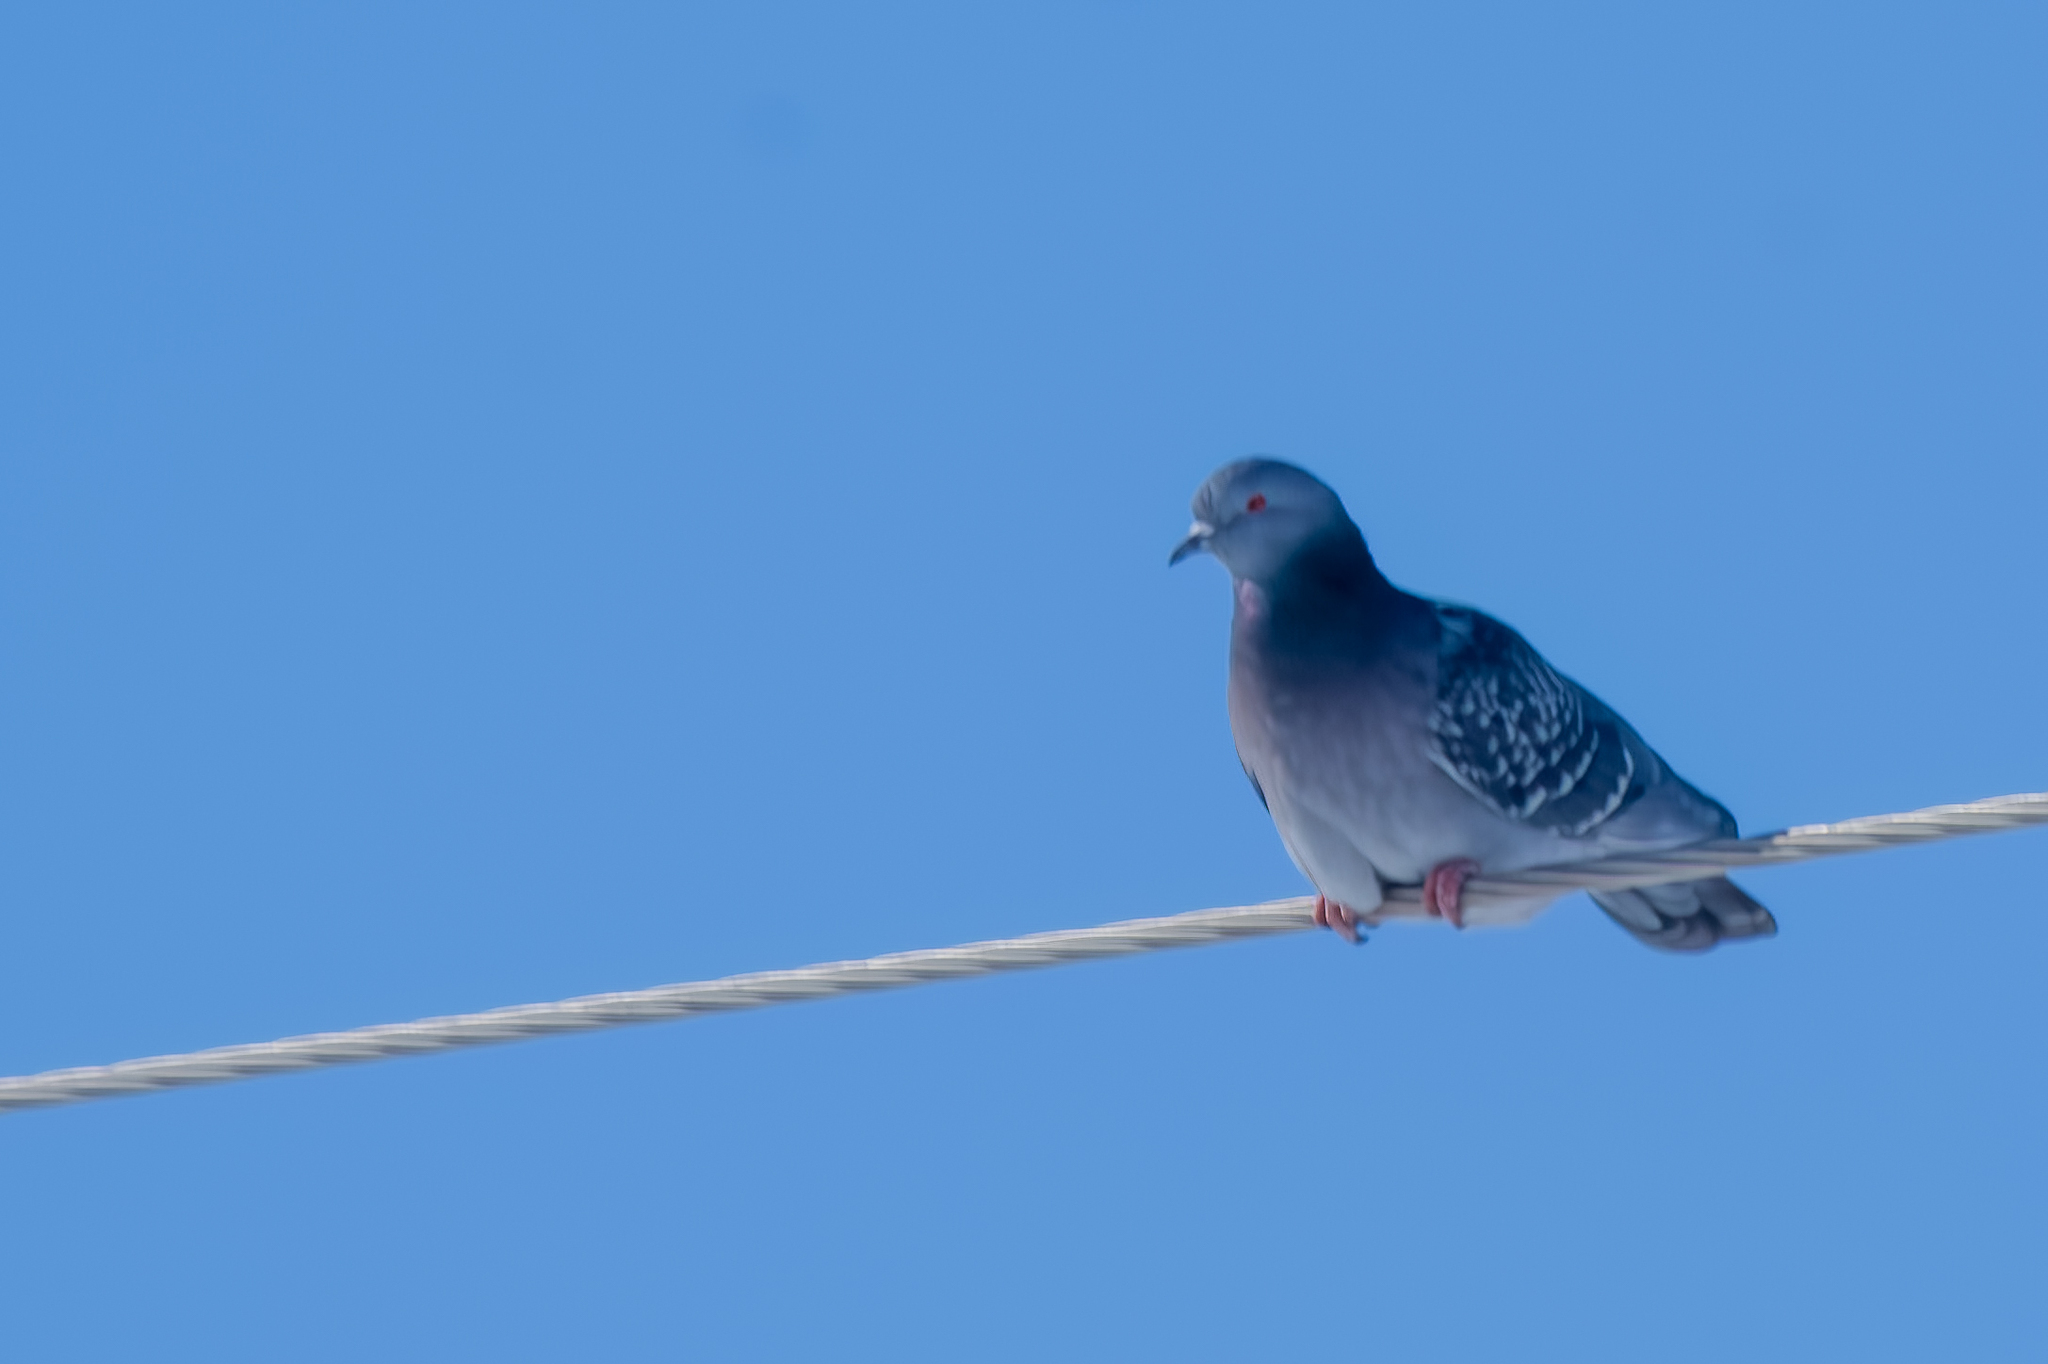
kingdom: Animalia
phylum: Chordata
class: Aves
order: Columbiformes
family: Columbidae
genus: Columba
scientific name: Columba livia
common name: Rock pigeon
